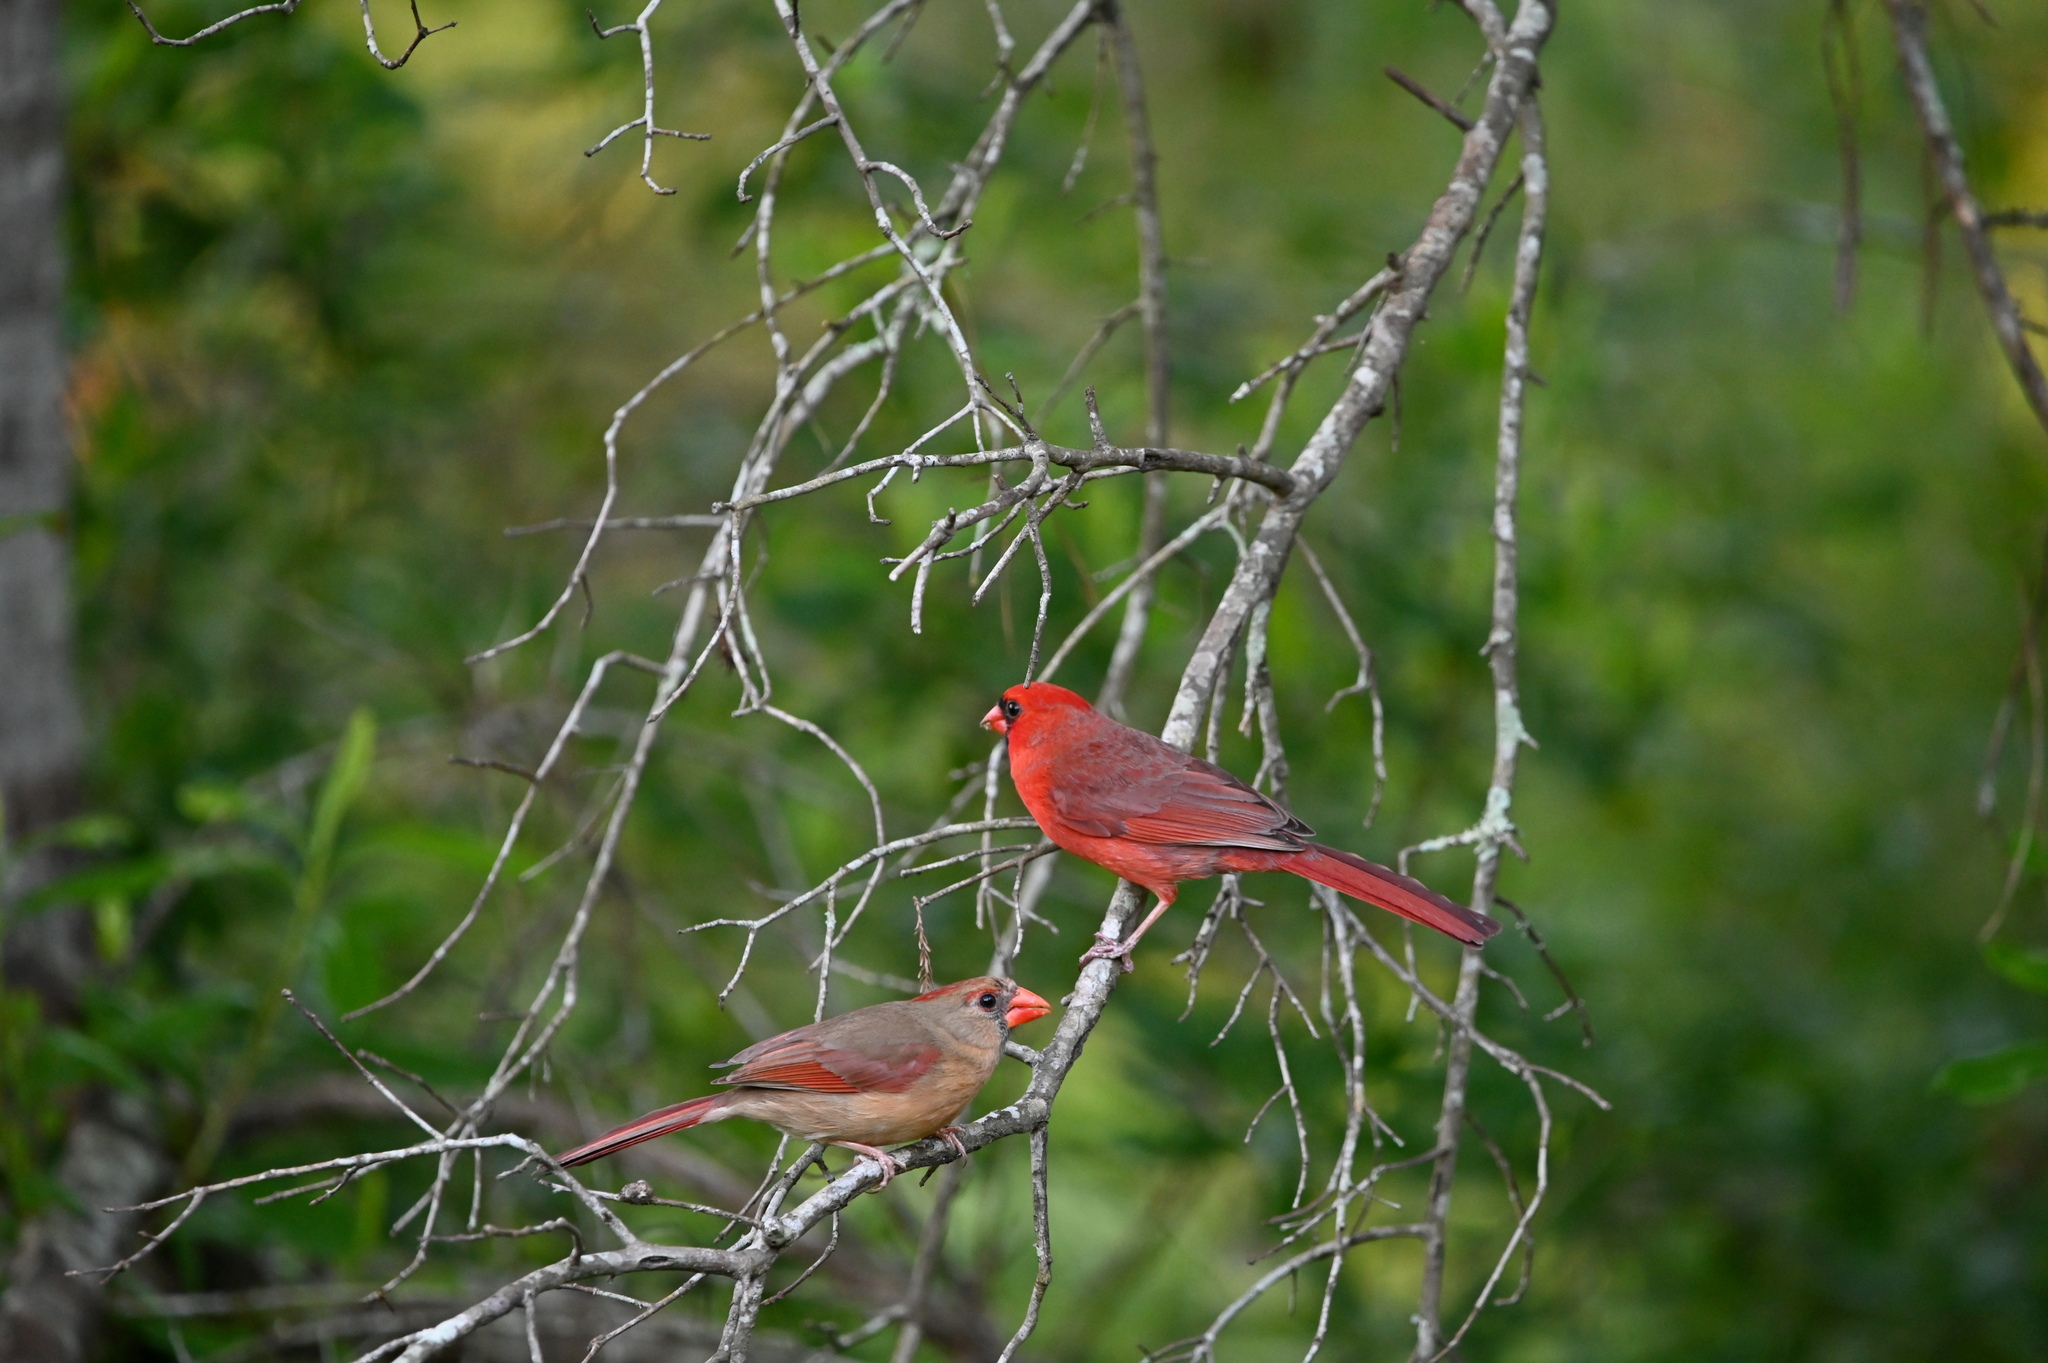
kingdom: Animalia
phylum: Chordata
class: Aves
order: Passeriformes
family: Cardinalidae
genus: Cardinalis
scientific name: Cardinalis cardinalis
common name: Northern cardinal
